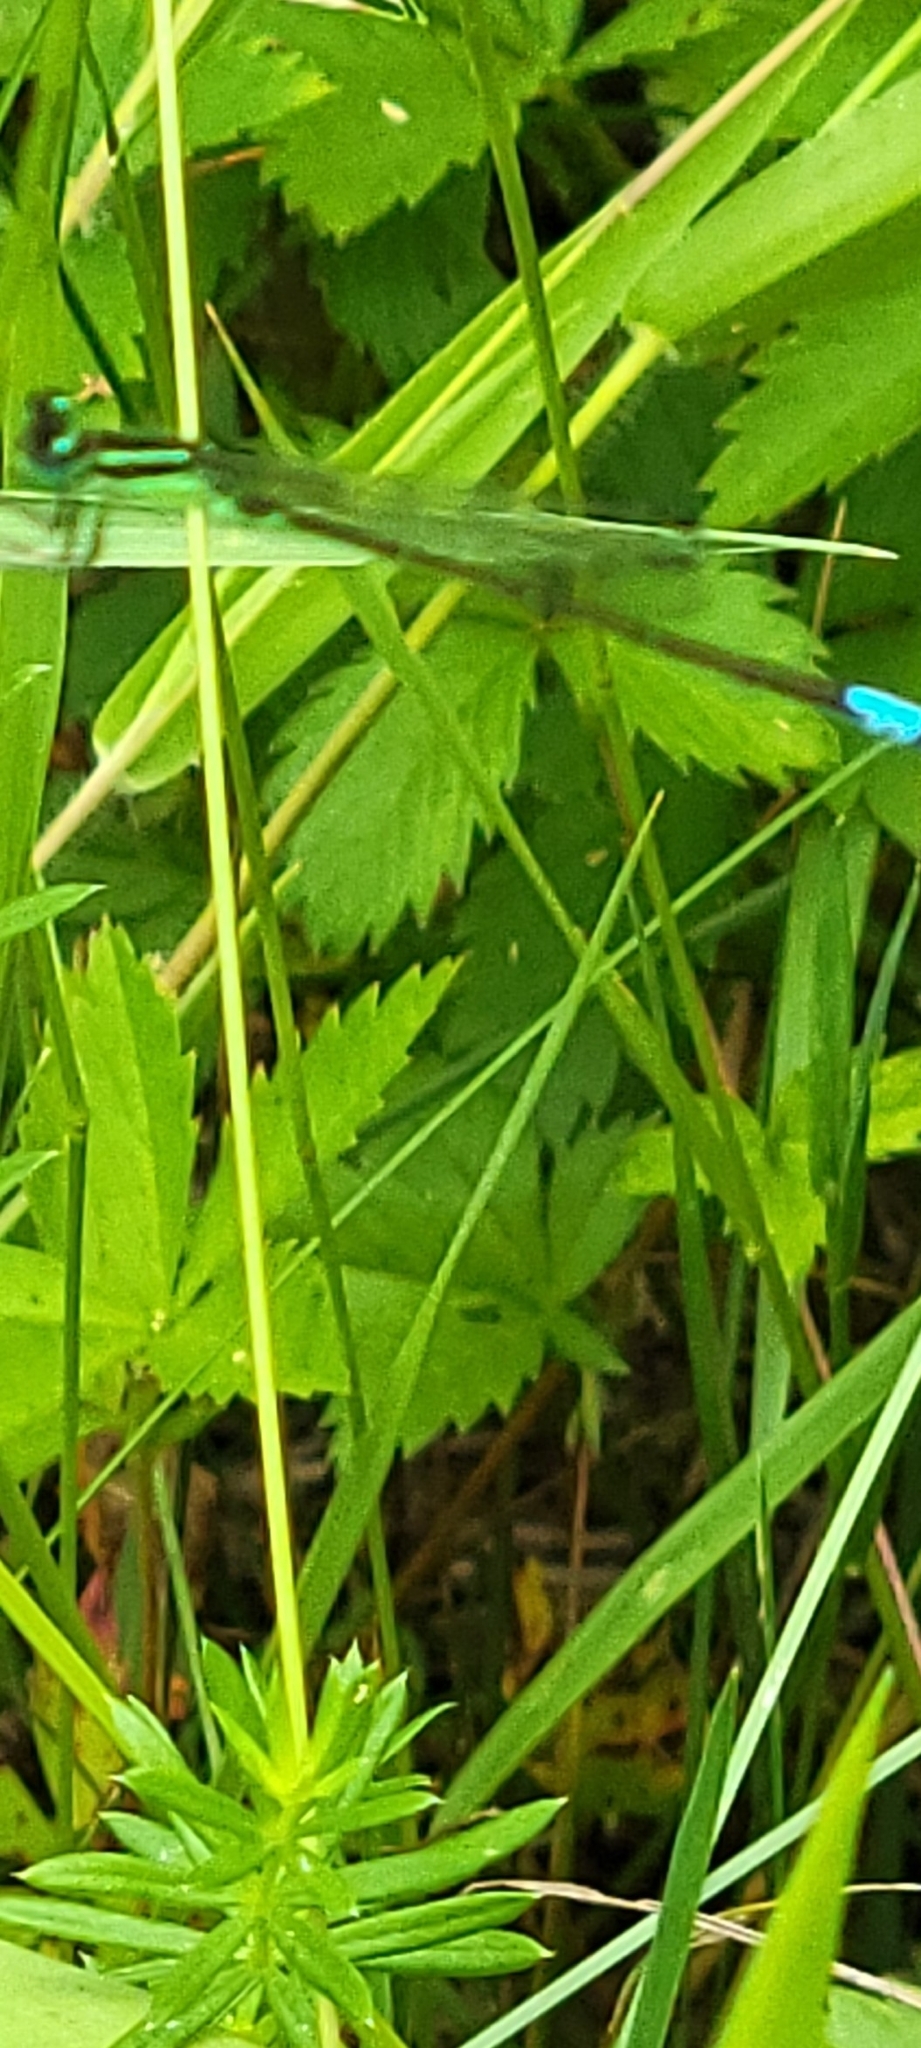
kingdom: Animalia
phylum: Arthropoda
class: Insecta
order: Odonata
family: Coenagrionidae
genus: Ischnura
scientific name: Ischnura verticalis
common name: Eastern forktail
